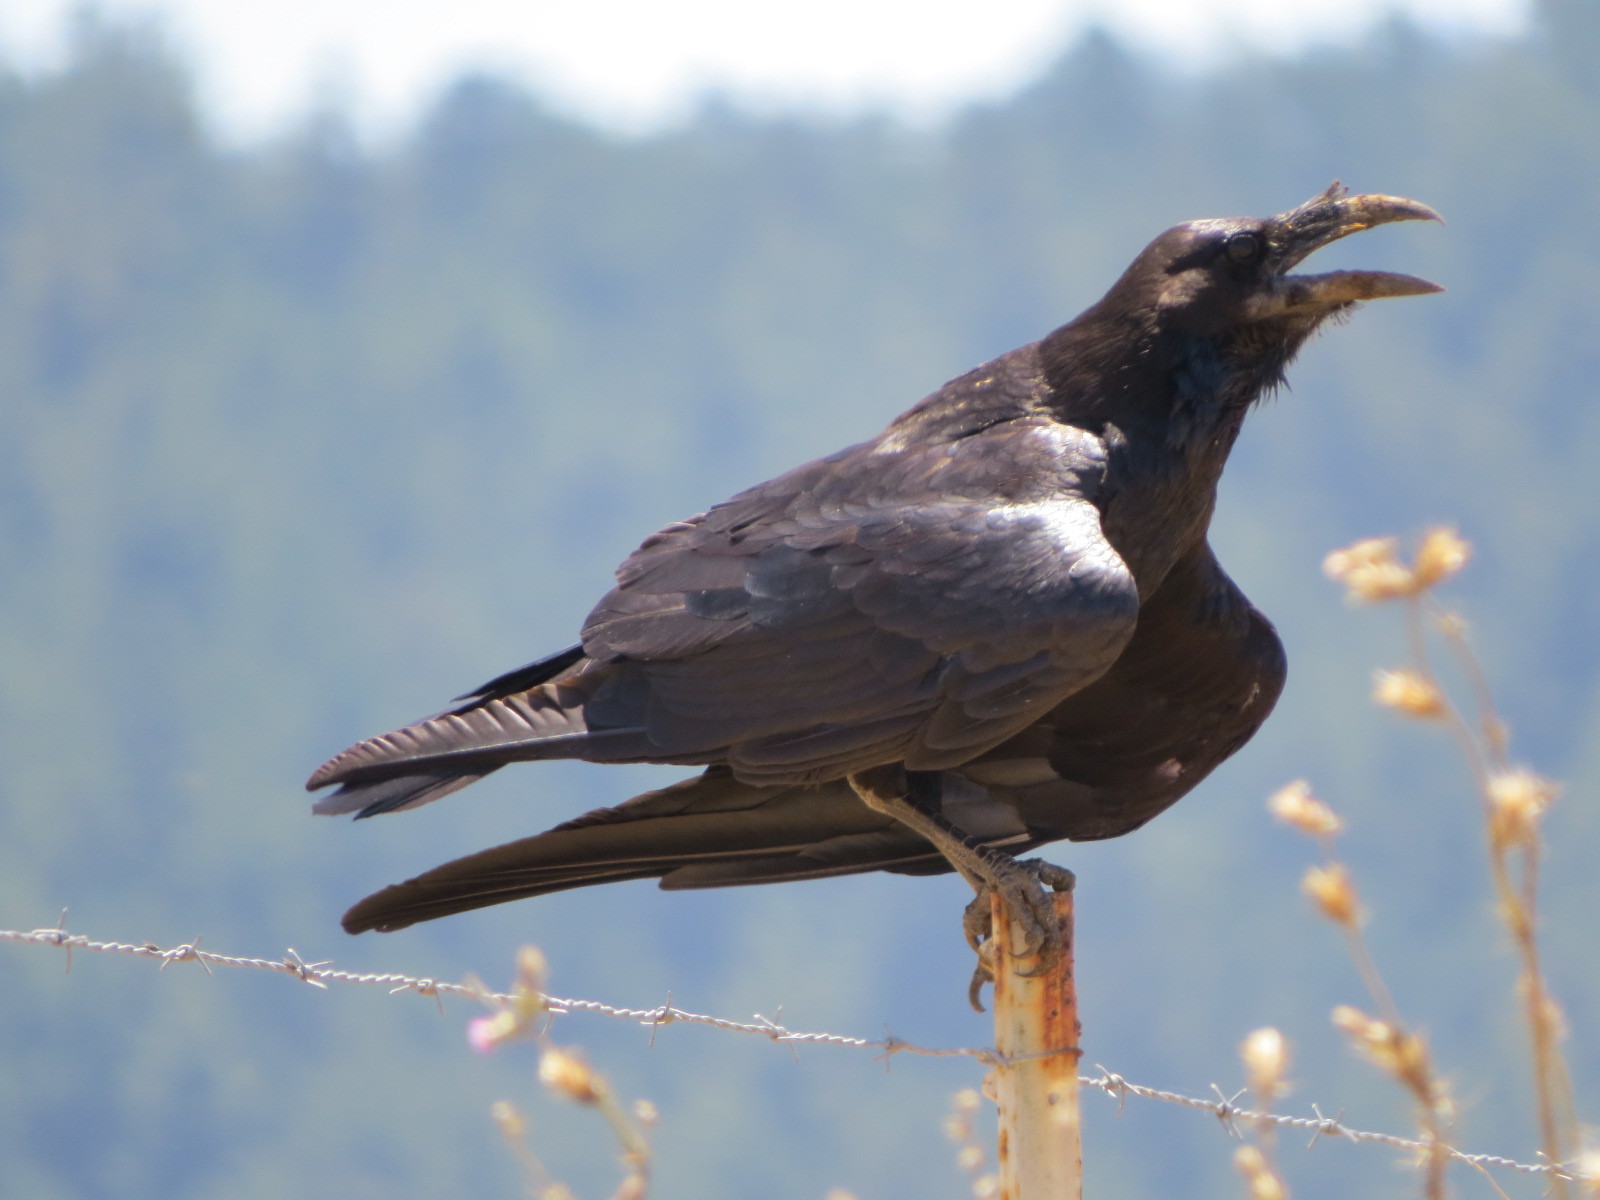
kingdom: Animalia
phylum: Chordata
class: Aves
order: Passeriformes
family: Corvidae
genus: Corvus
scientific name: Corvus corax
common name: Common raven
